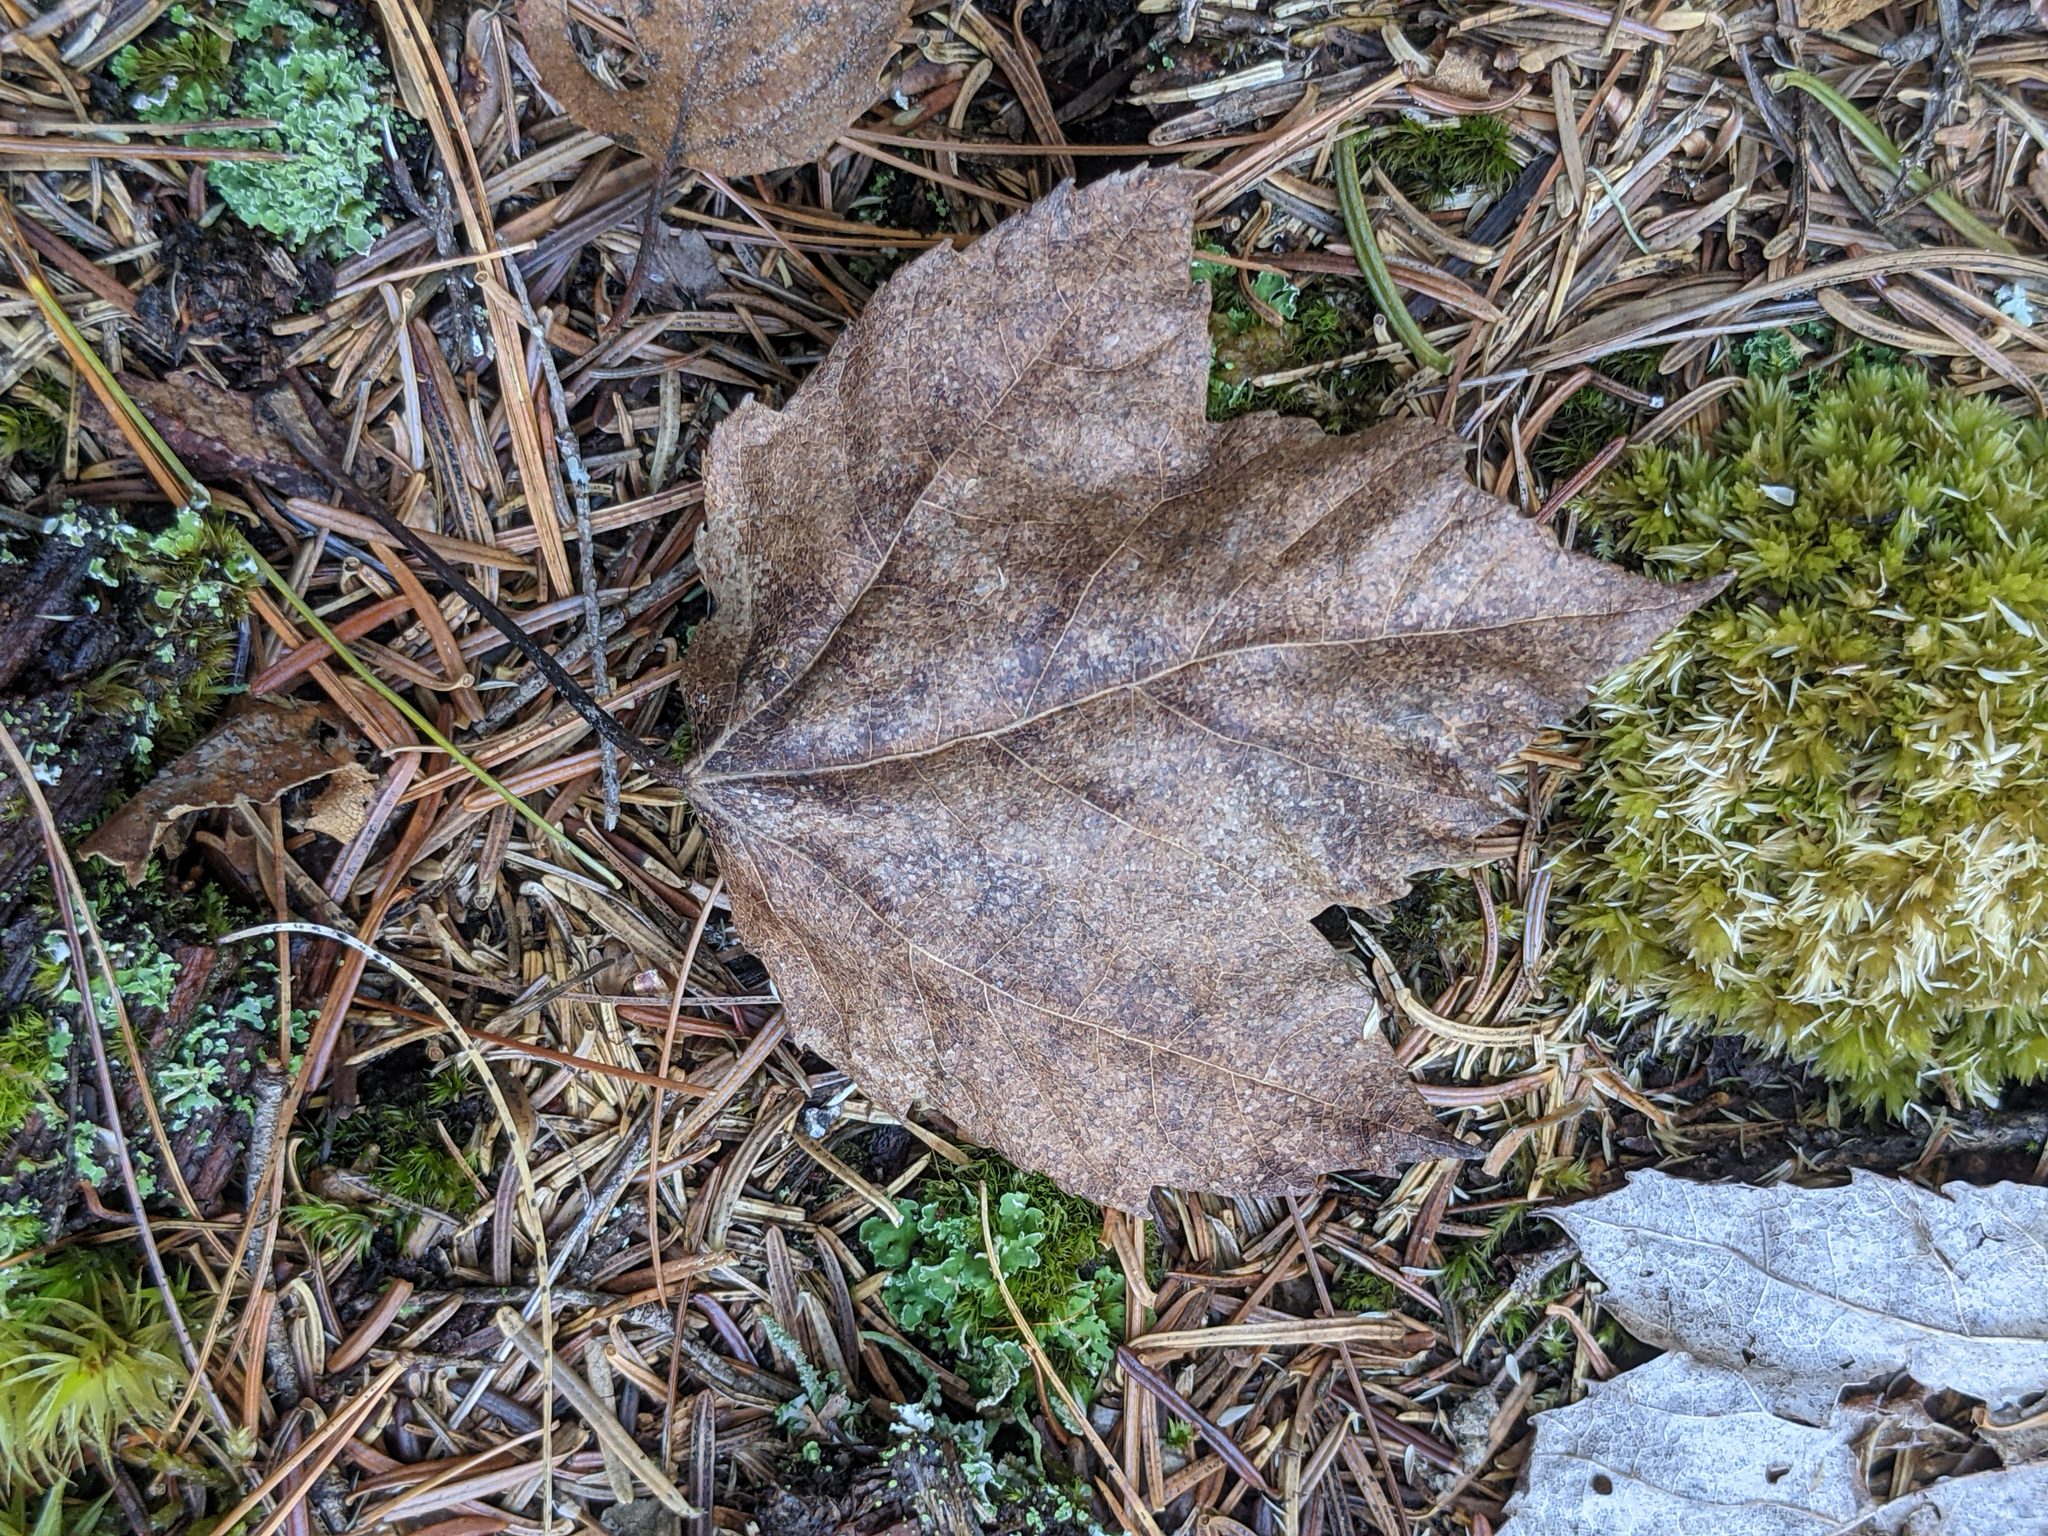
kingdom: Plantae
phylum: Tracheophyta
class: Magnoliopsida
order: Sapindales
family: Sapindaceae
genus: Acer
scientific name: Acer rubrum
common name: Red maple
